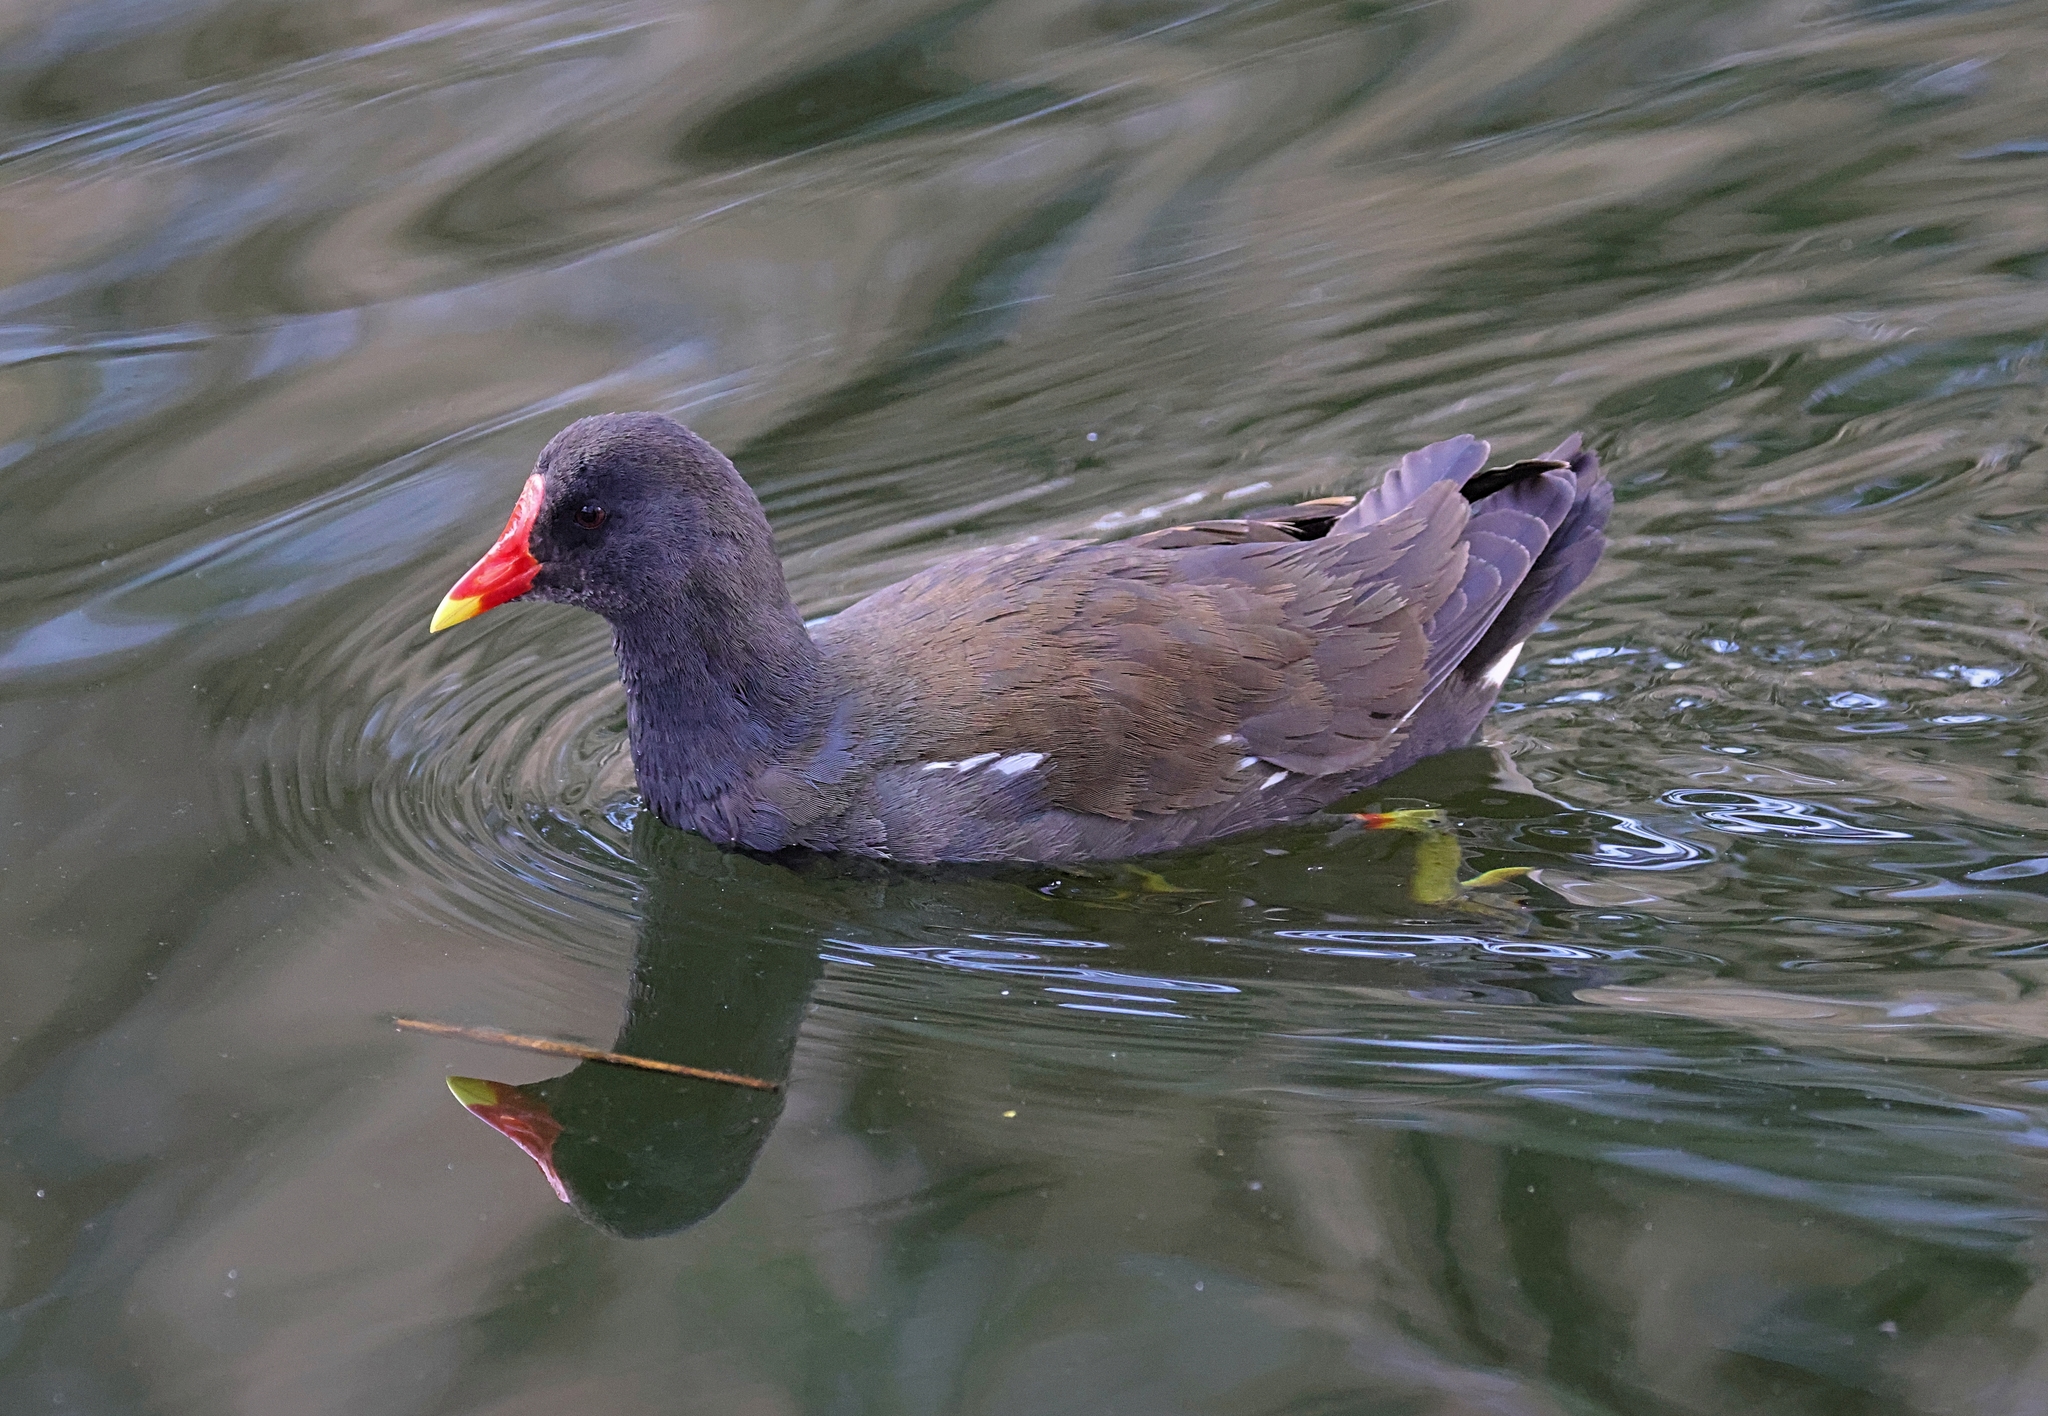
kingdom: Animalia
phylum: Chordata
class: Aves
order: Gruiformes
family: Rallidae
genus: Gallinula
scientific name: Gallinula chloropus
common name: Common moorhen
